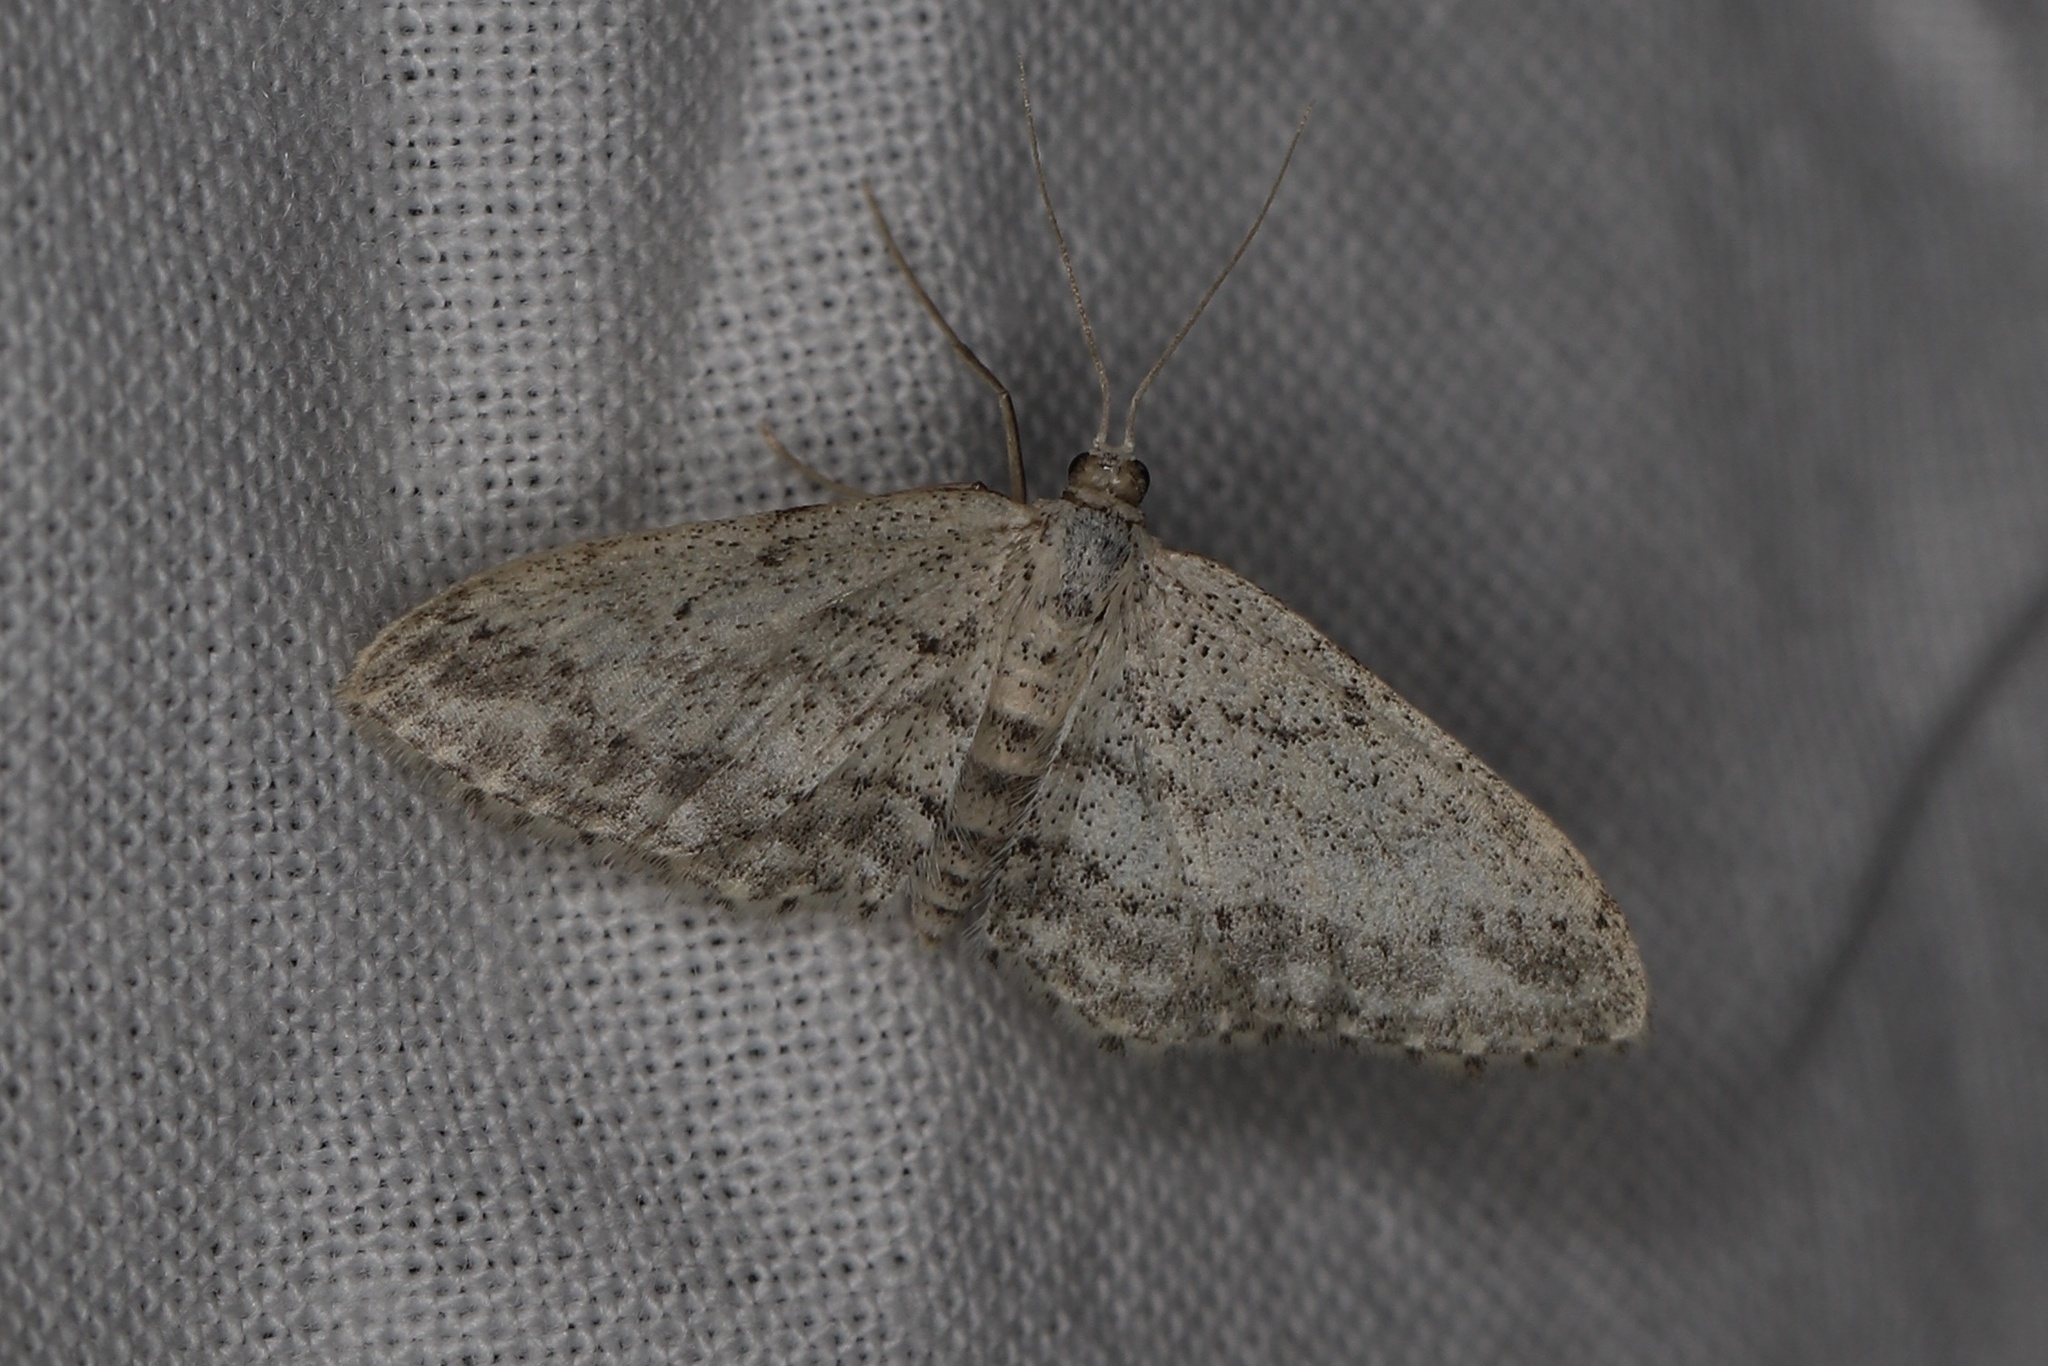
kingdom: Animalia
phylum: Arthropoda
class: Insecta
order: Lepidoptera
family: Geometridae
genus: Idaea
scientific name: Idaea seriata
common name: Small dusty wave
